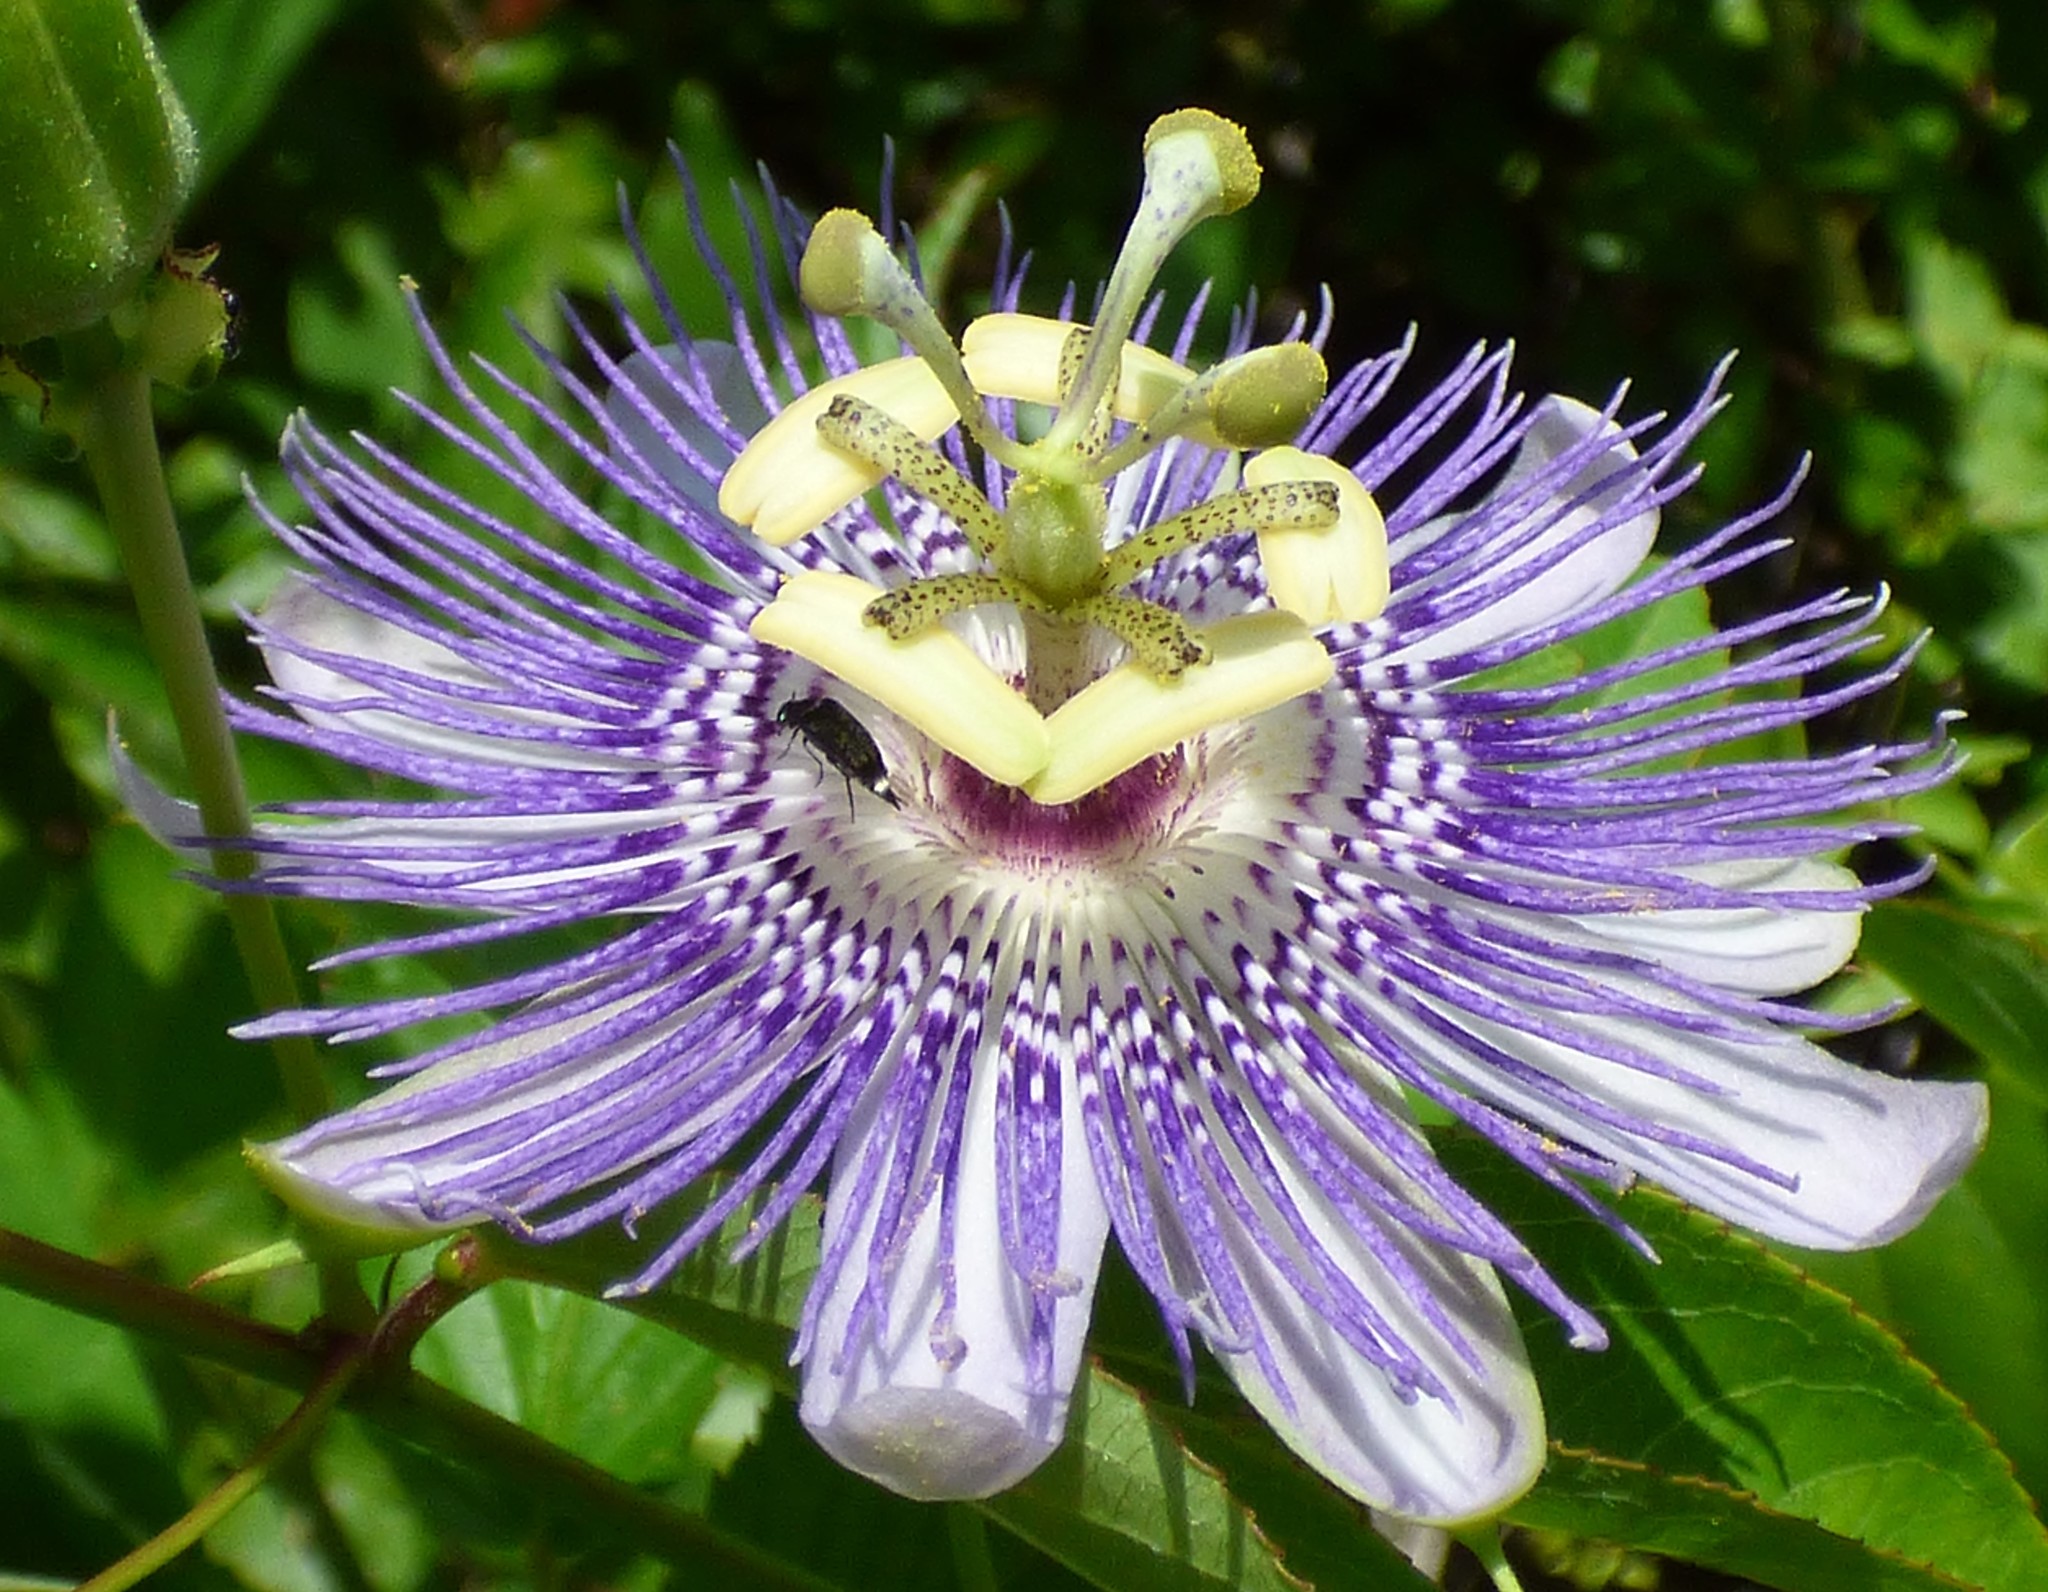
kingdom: Plantae
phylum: Tracheophyta
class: Magnoliopsida
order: Malpighiales
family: Passifloraceae
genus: Passiflora
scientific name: Passiflora incarnata
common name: Apricot-vine
